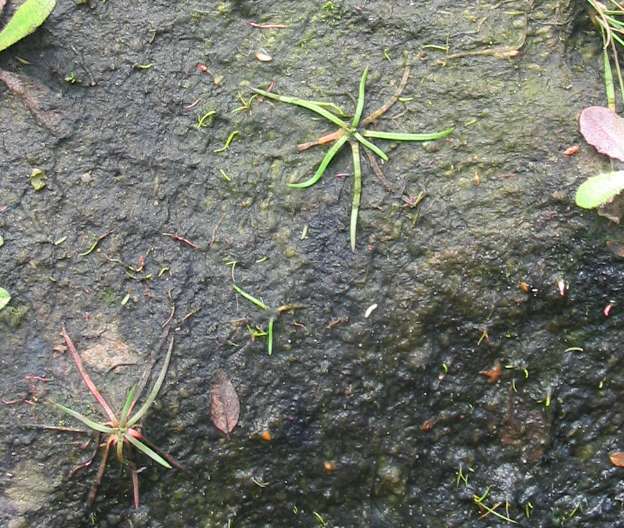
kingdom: Plantae
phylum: Tracheophyta
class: Magnoliopsida
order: Lamiales
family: Plantaginaceae
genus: Littorella
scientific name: Littorella uniflora
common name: Shoreweed
